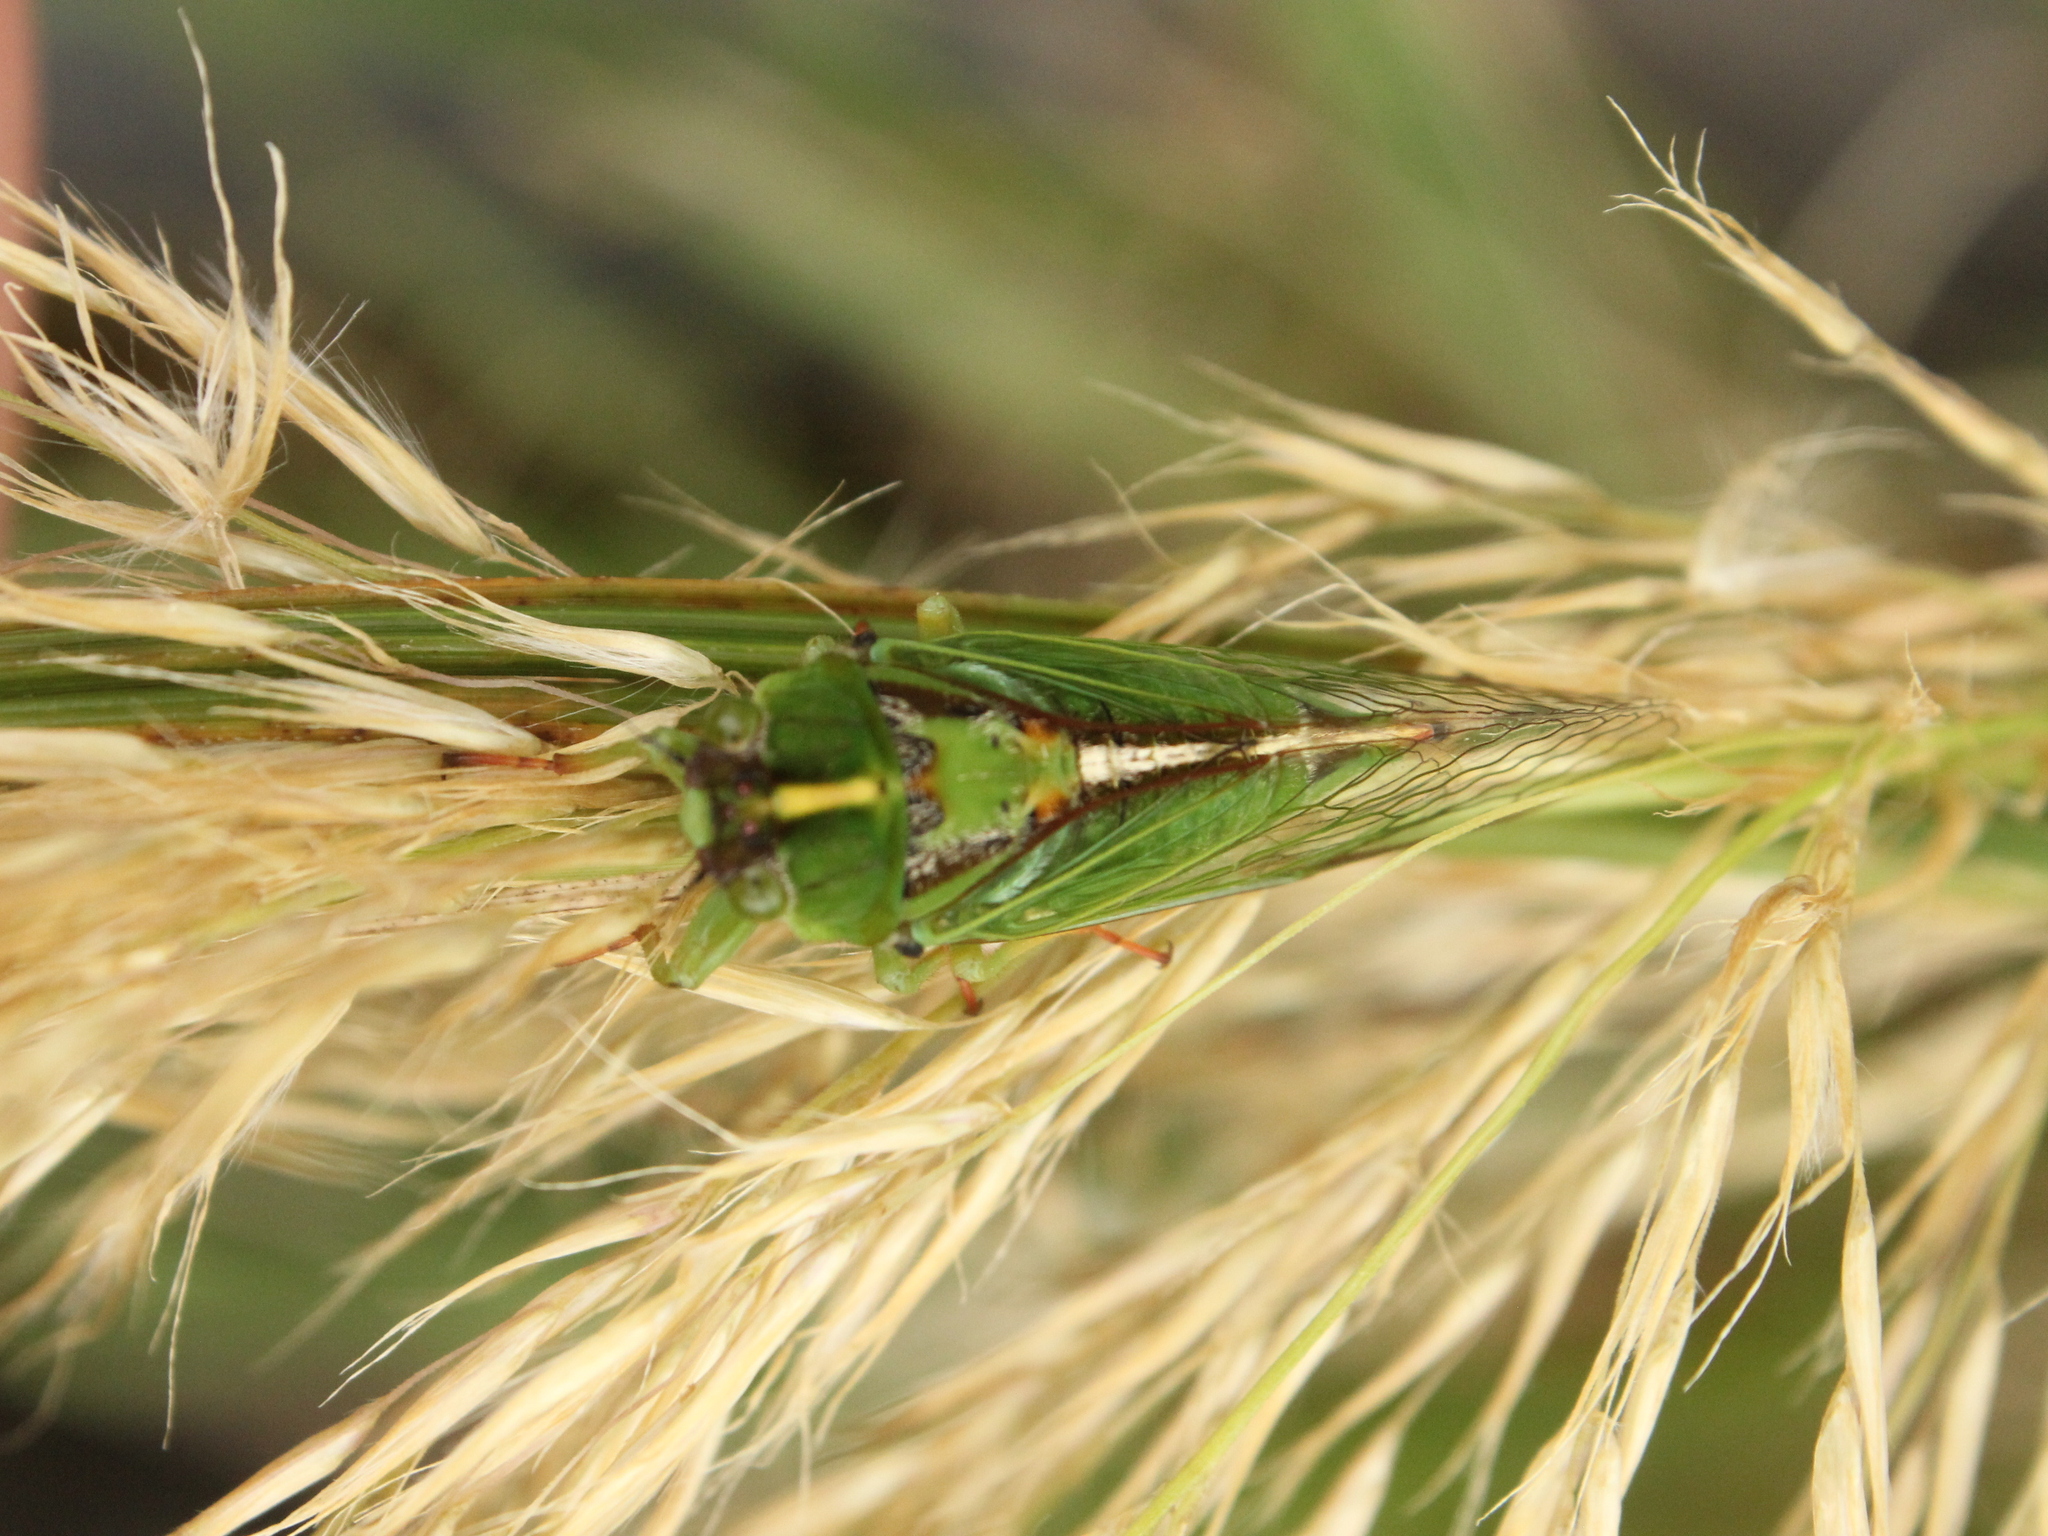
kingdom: Animalia
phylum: Arthropoda
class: Insecta
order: Hemiptera
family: Cicadidae
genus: Kikihia
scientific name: Kikihia cutora
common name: Northern snoring cicada
